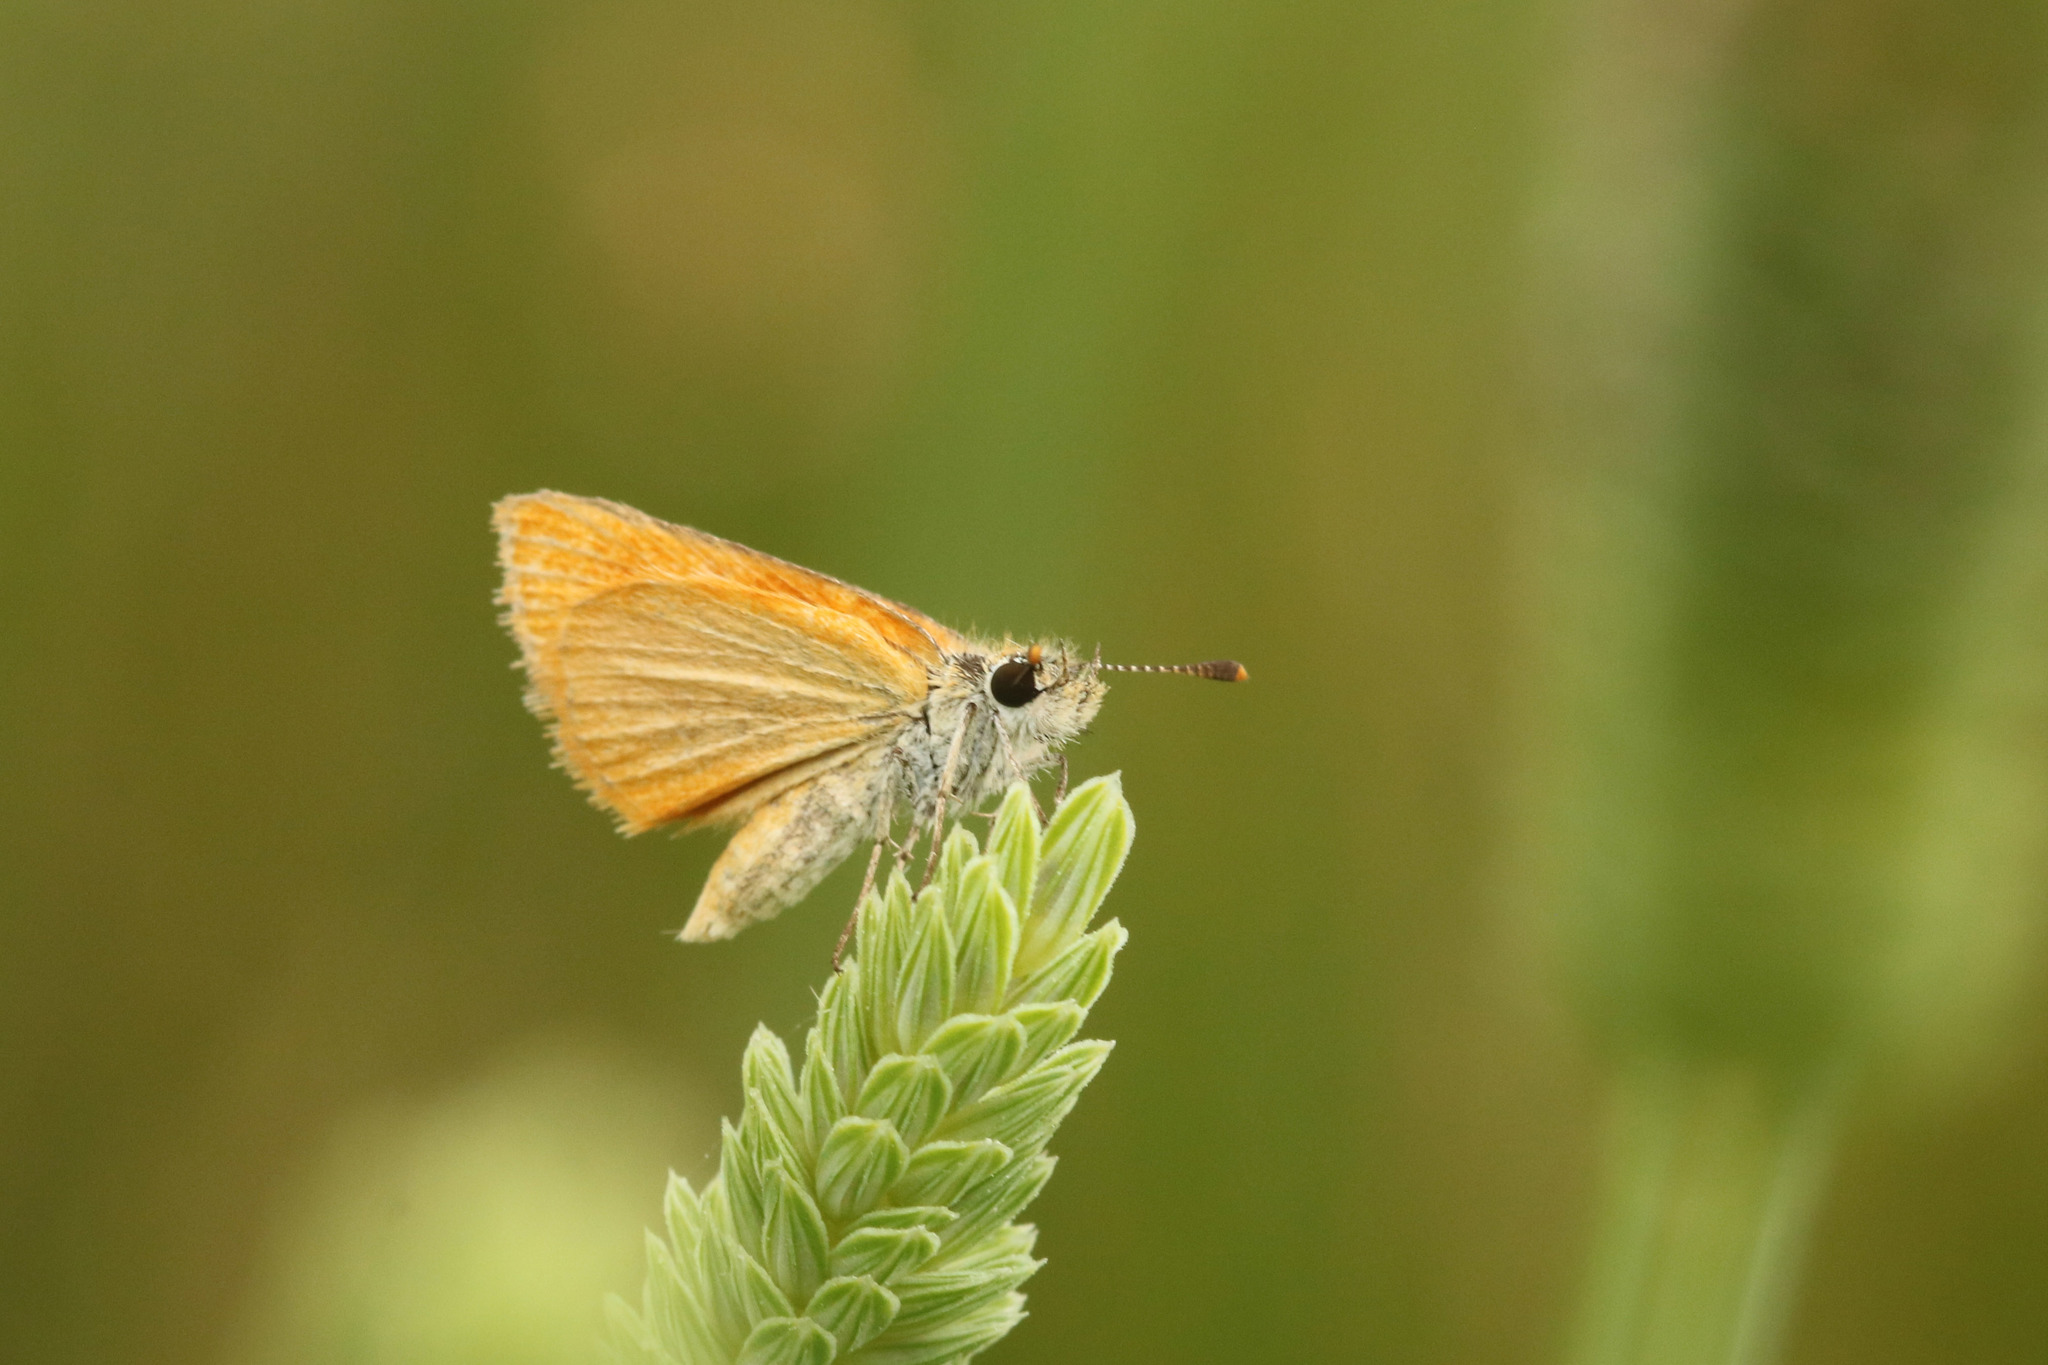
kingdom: Animalia
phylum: Arthropoda
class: Insecta
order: Lepidoptera
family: Hesperiidae
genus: Ancyloxypha
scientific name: Ancyloxypha nitedula
